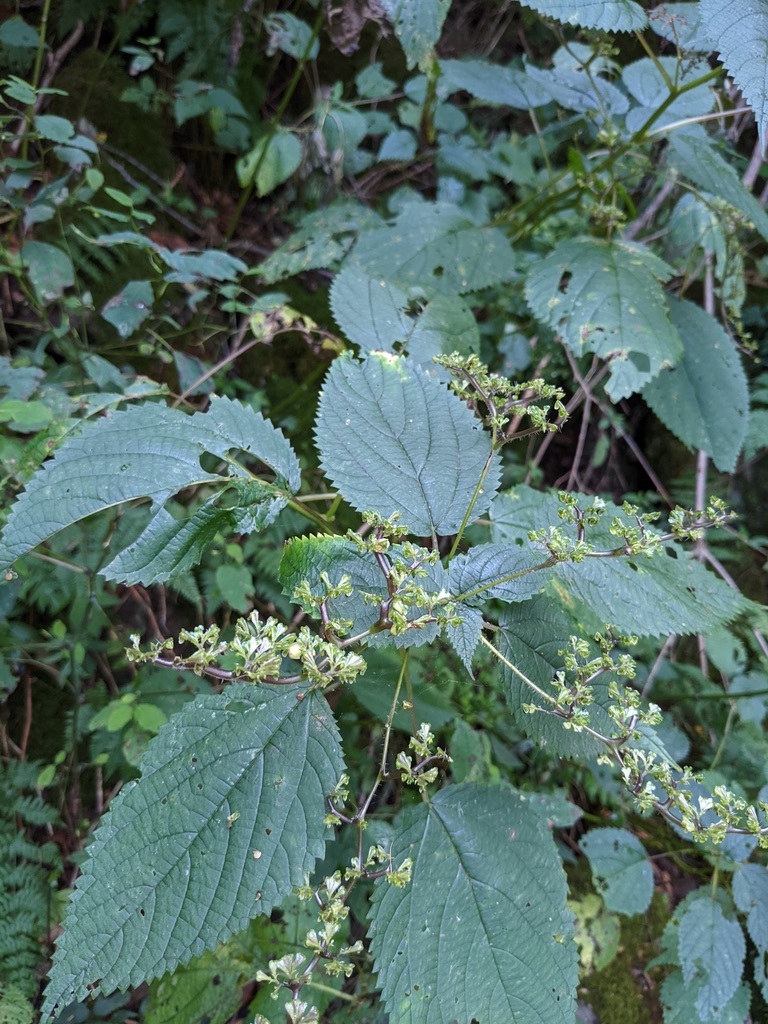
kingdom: Plantae
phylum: Tracheophyta
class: Magnoliopsida
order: Rosales
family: Urticaceae
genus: Laportea
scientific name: Laportea canadensis
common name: Canada nettle
